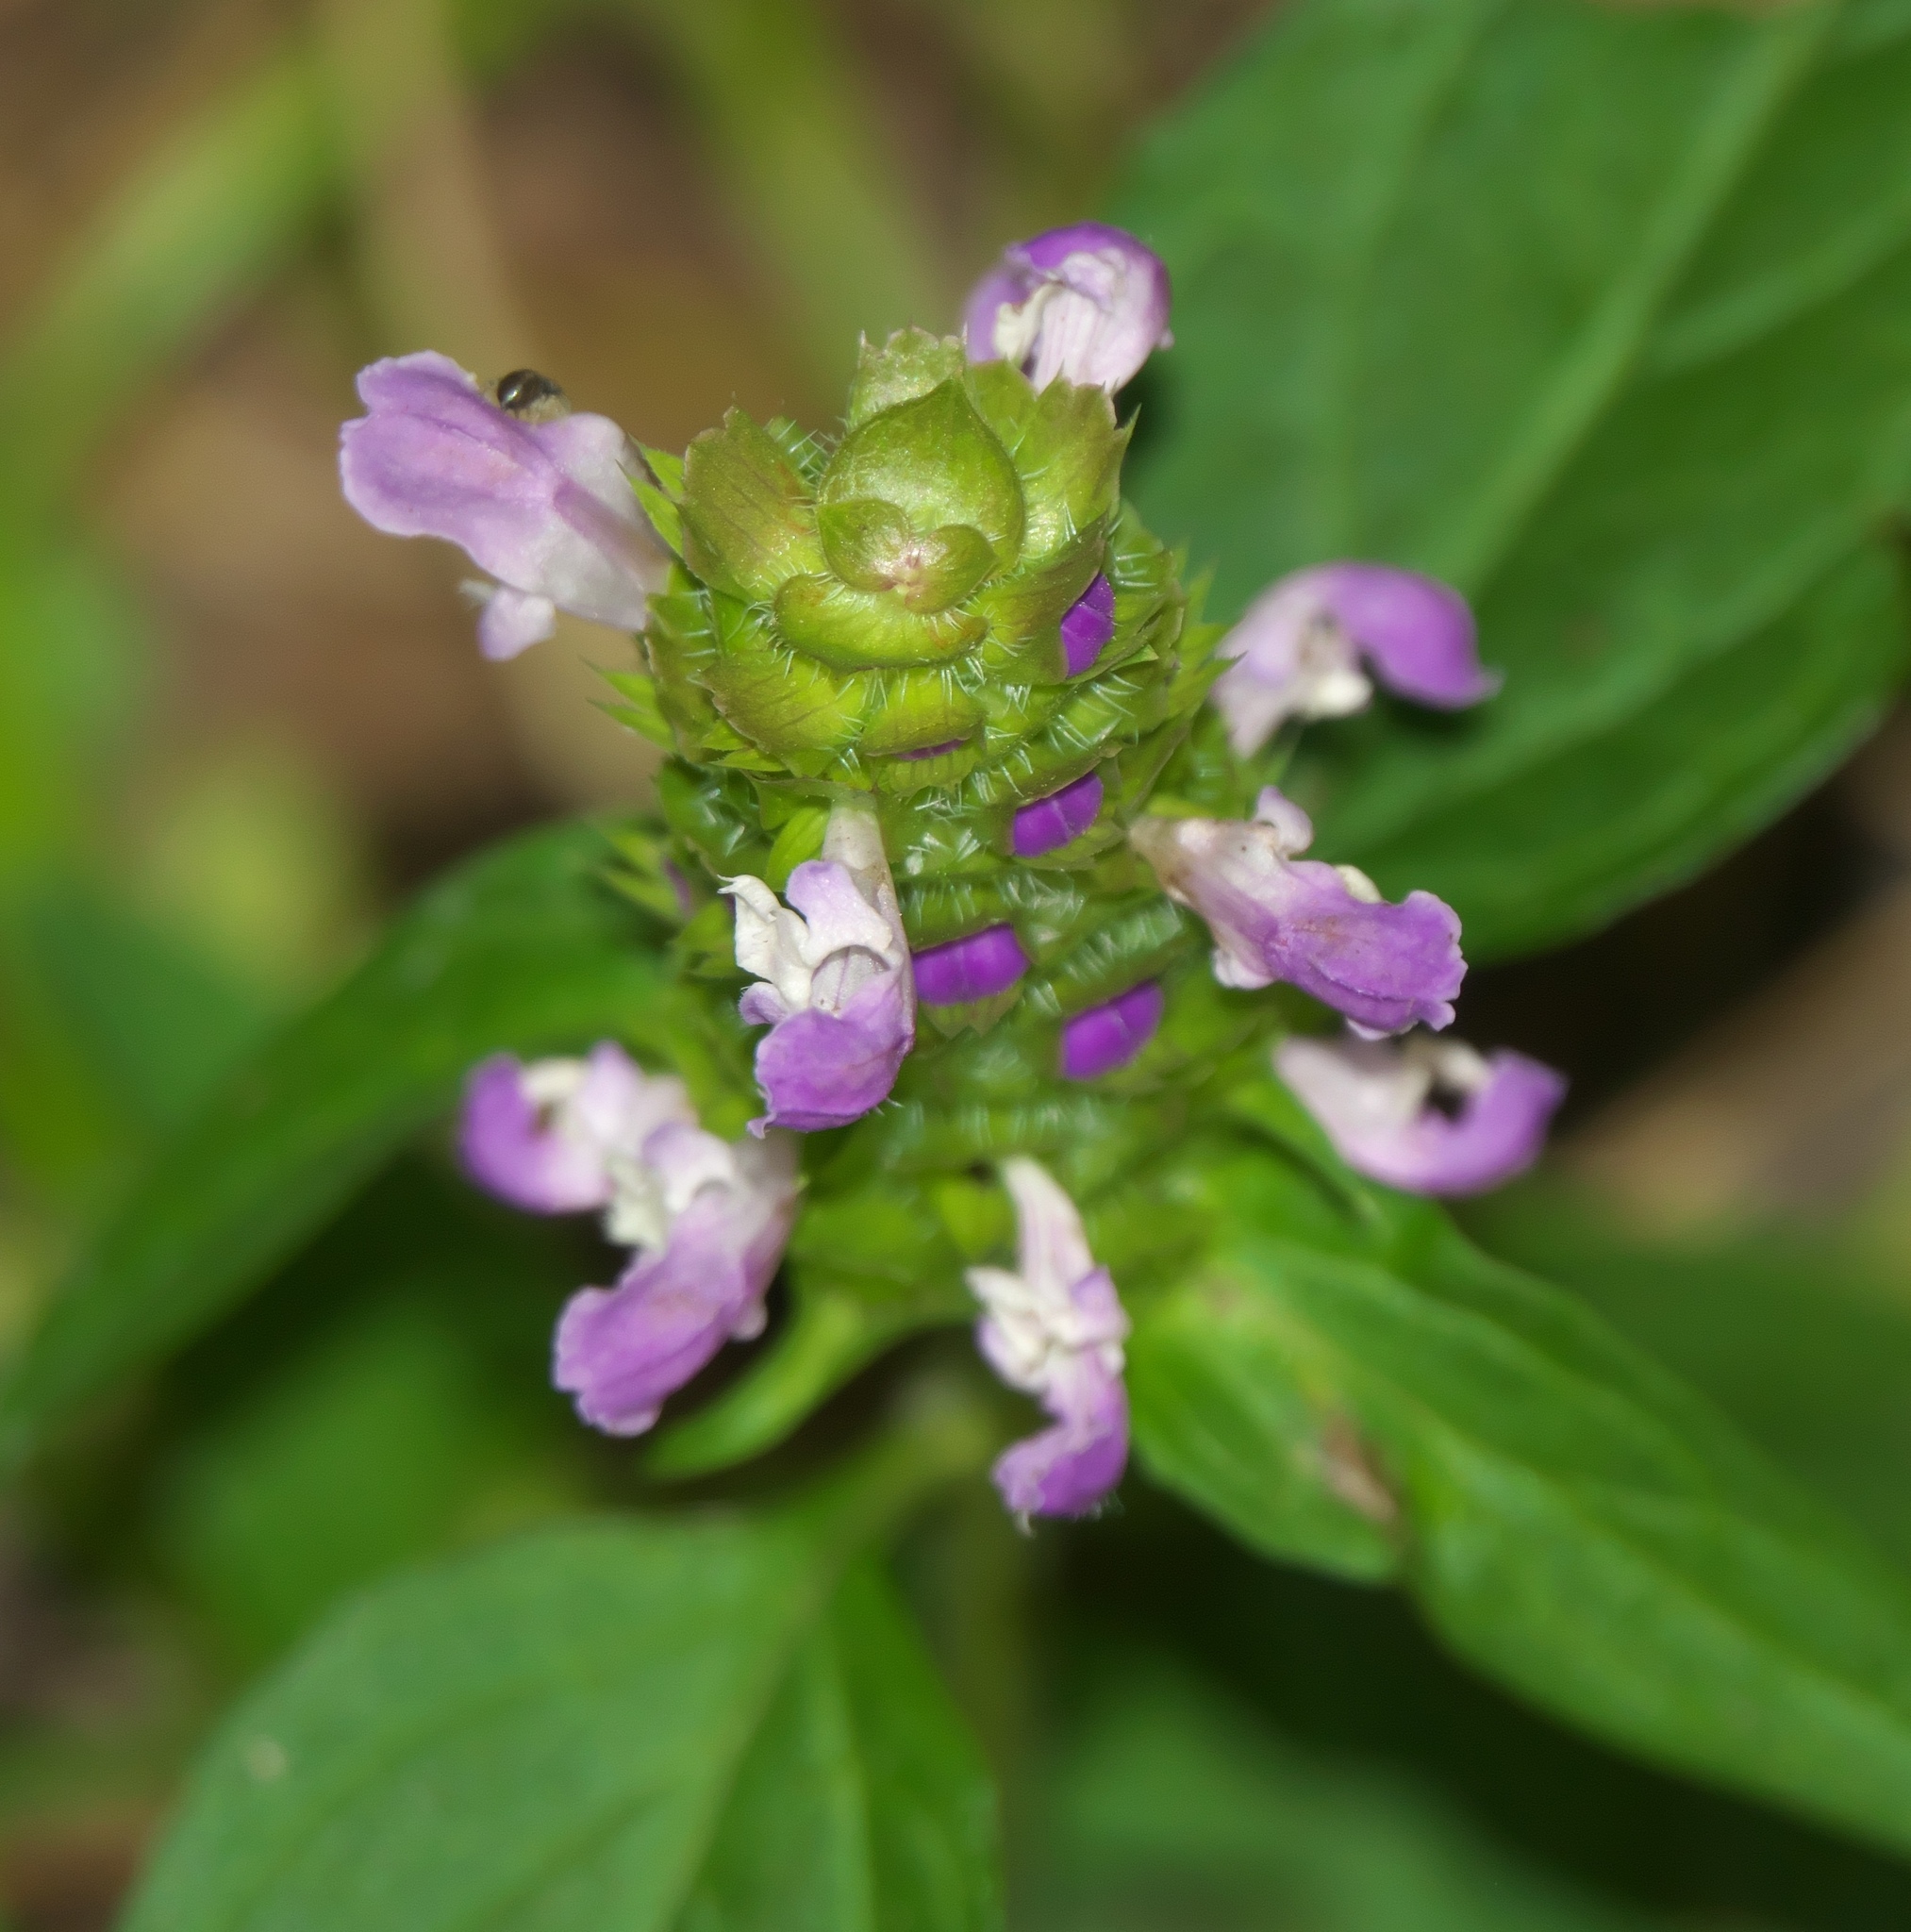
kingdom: Plantae
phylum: Tracheophyta
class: Magnoliopsida
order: Lamiales
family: Lamiaceae
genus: Prunella
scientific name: Prunella vulgaris
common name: Heal-all
